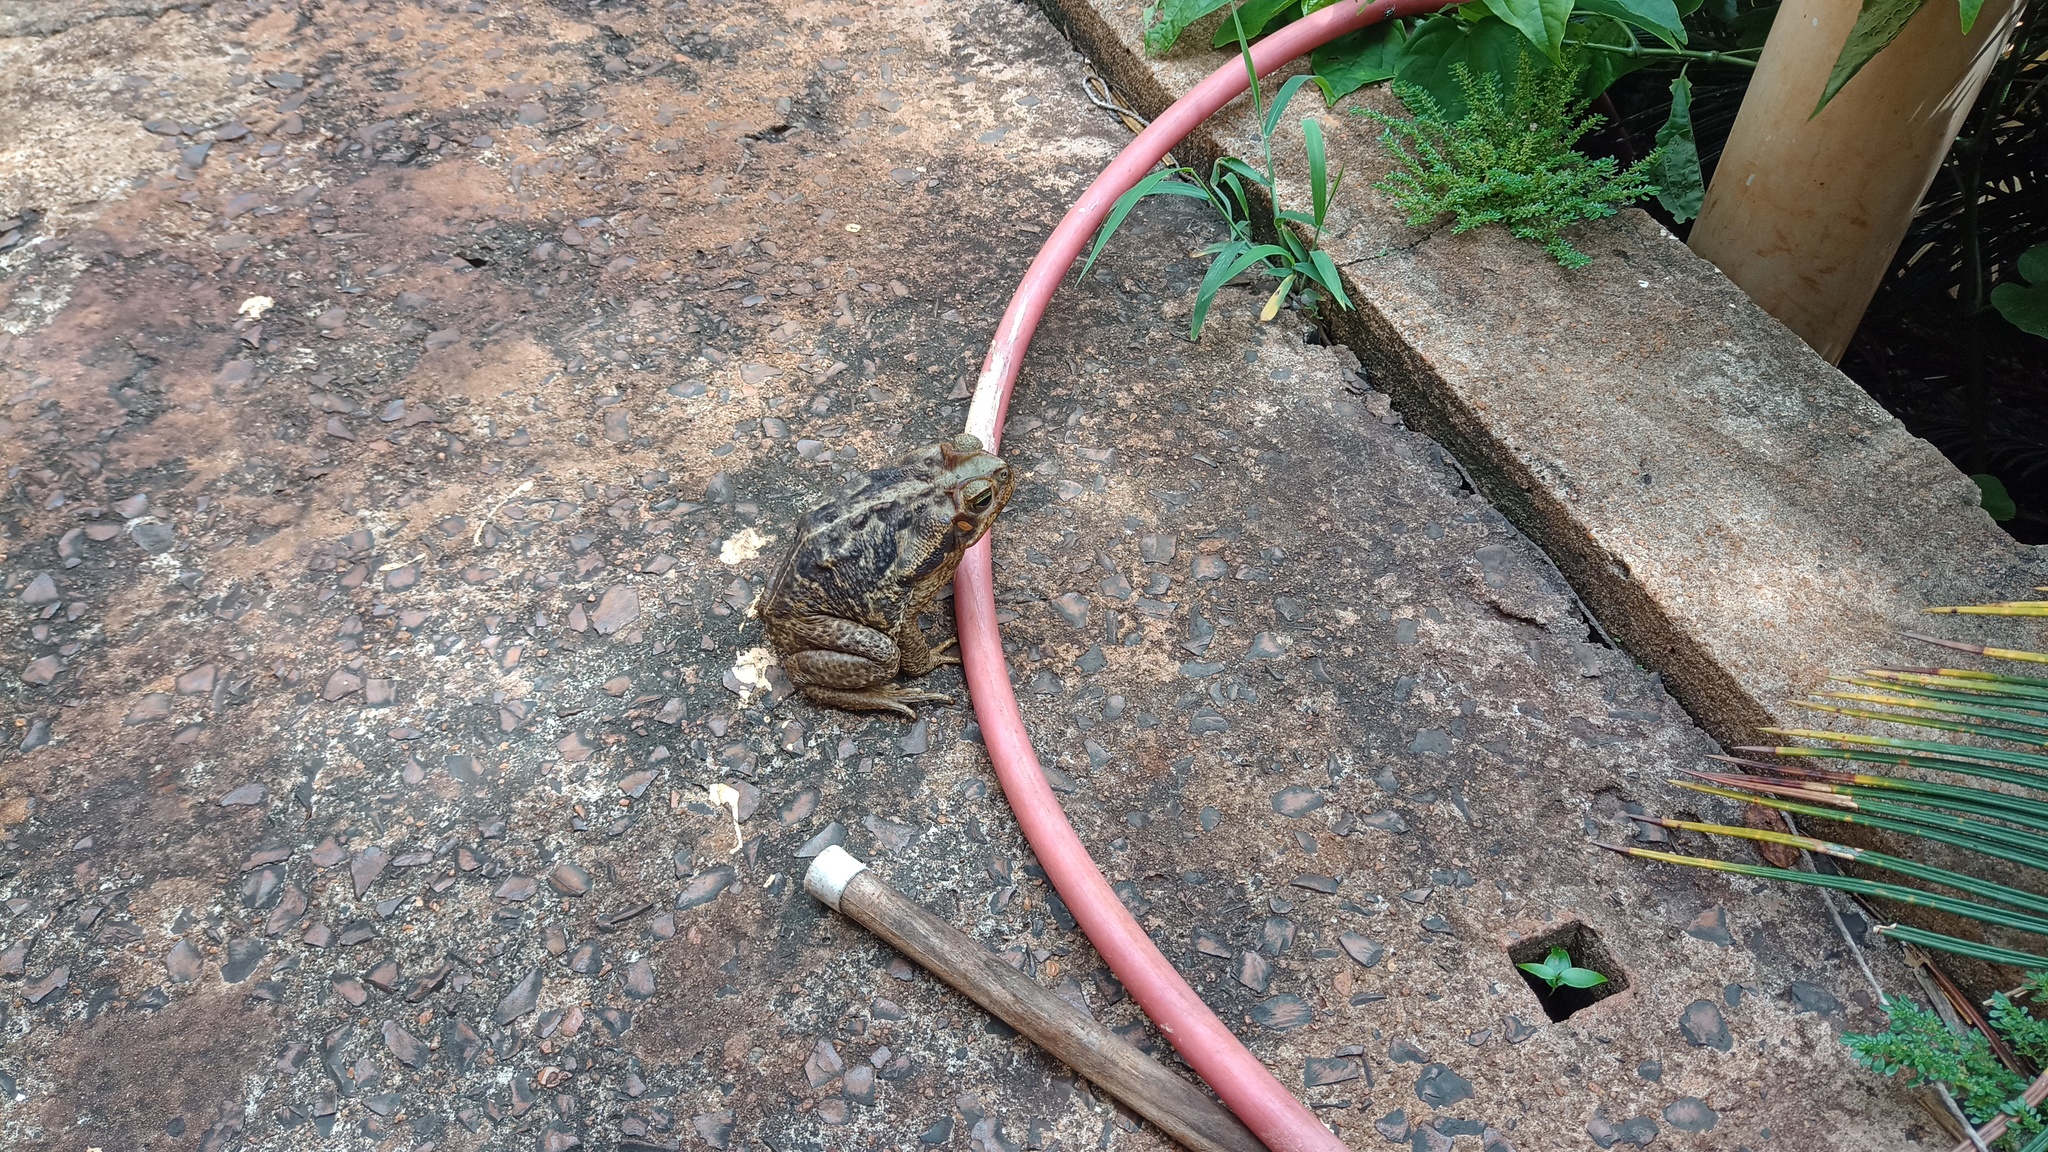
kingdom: Animalia
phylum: Chordata
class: Amphibia
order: Anura
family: Bufonidae
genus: Rhinella
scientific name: Rhinella diptycha
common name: Cope's toad
